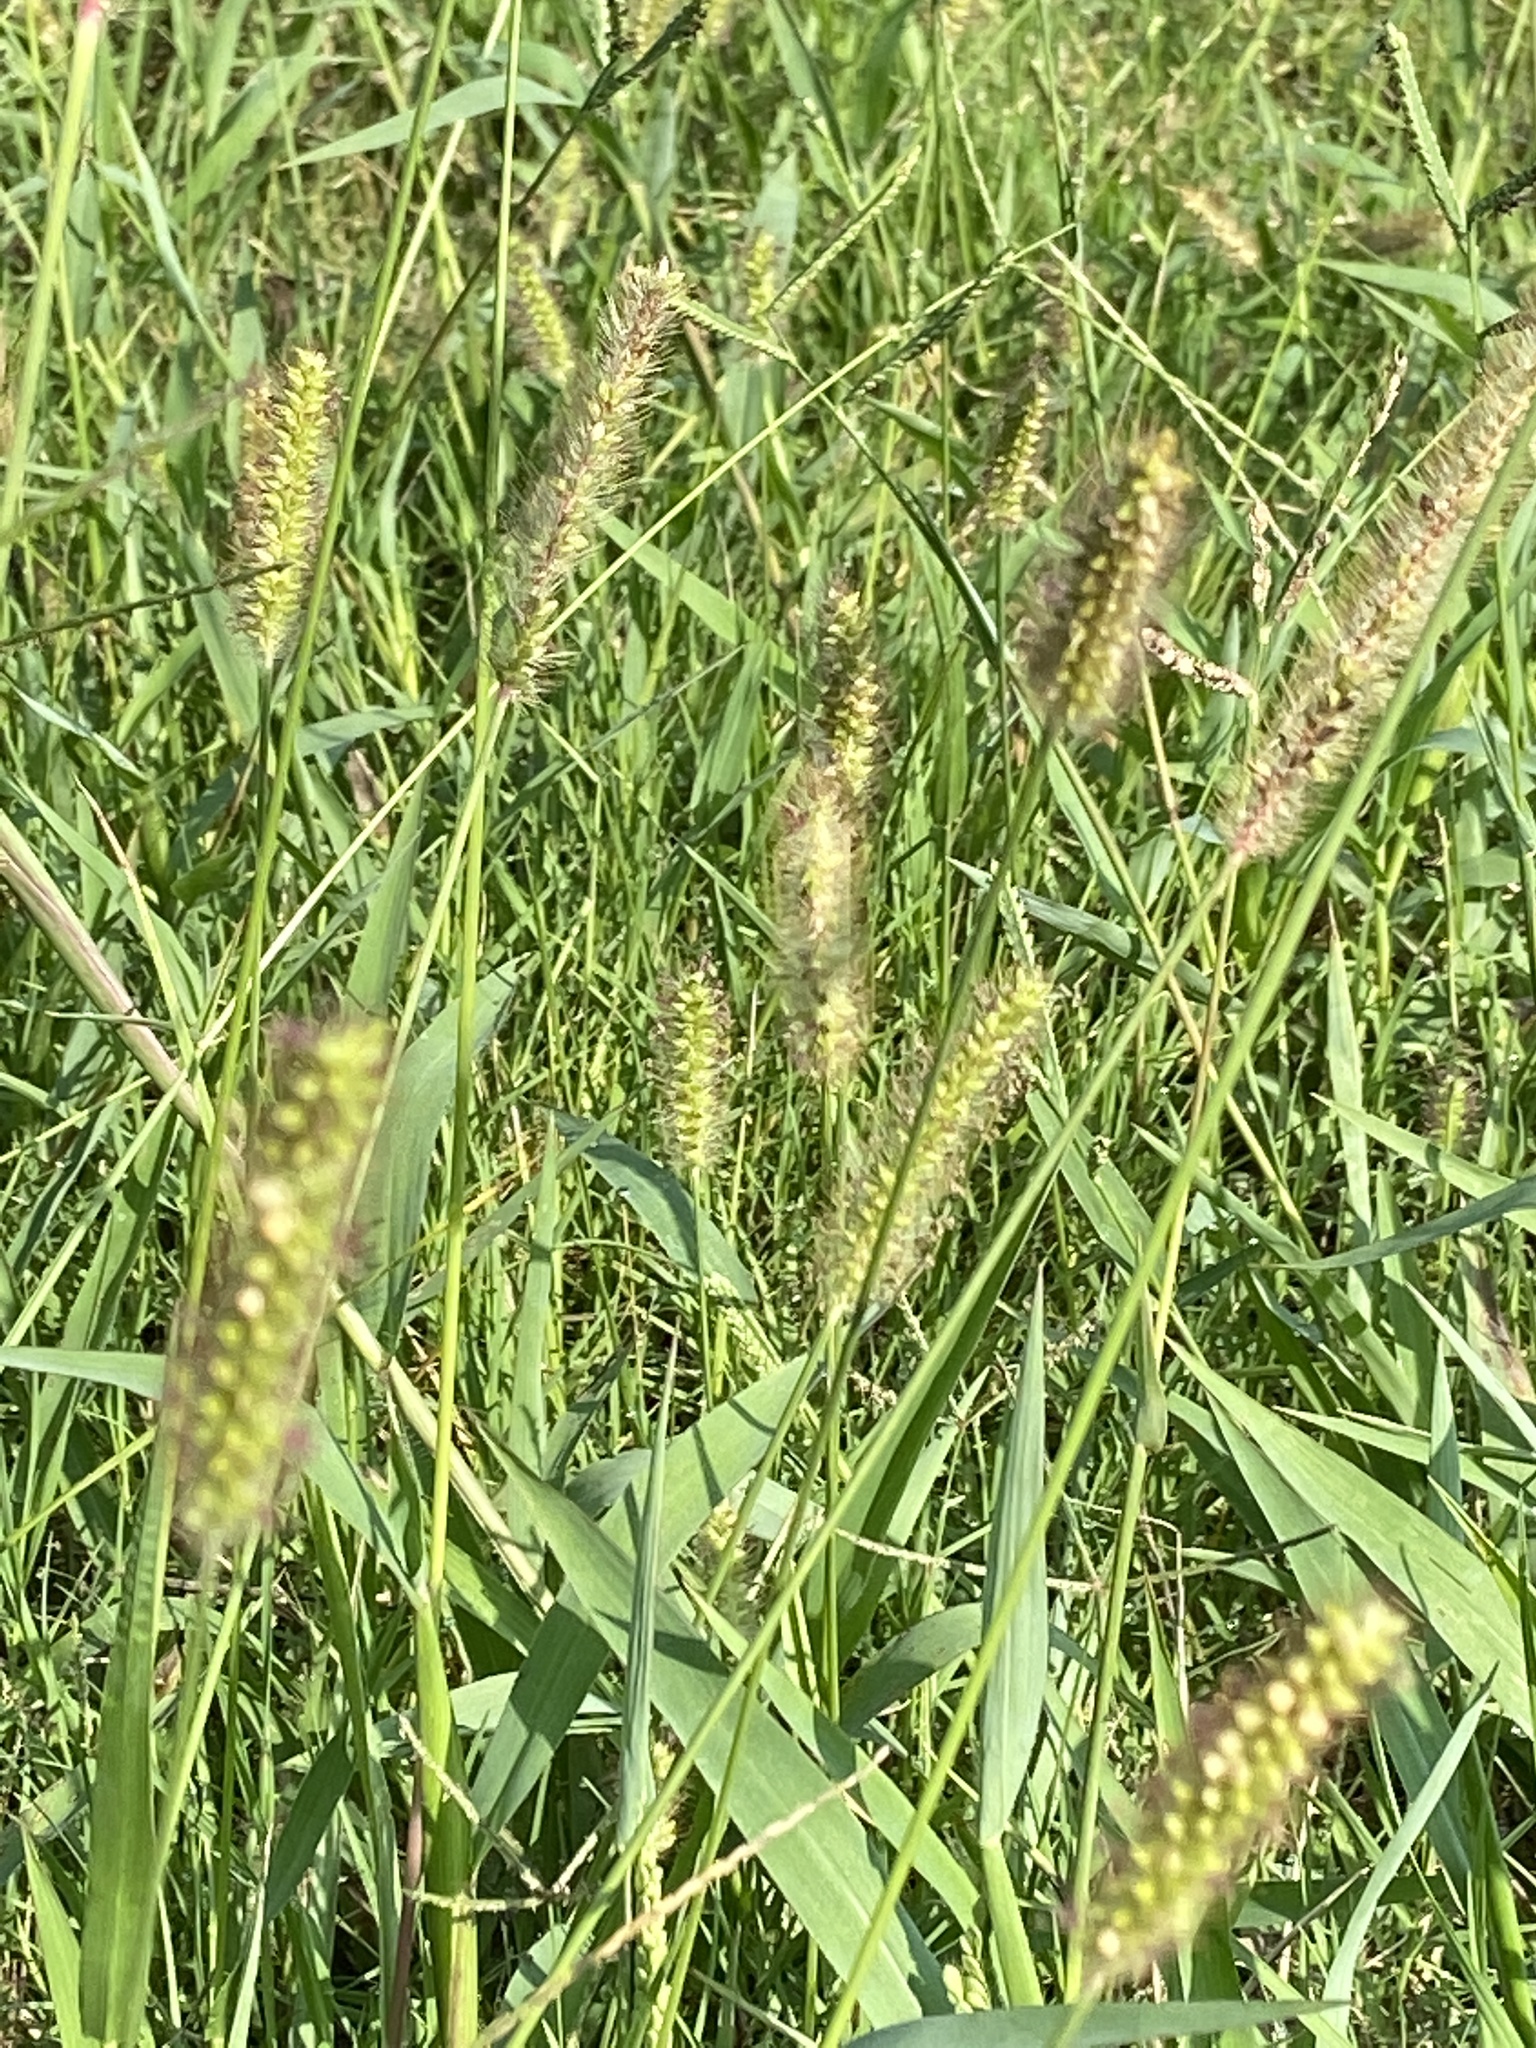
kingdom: Plantae
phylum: Tracheophyta
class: Liliopsida
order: Poales
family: Poaceae
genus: Setaria
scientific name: Setaria parviflora
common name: Knotroot bristle-grass
